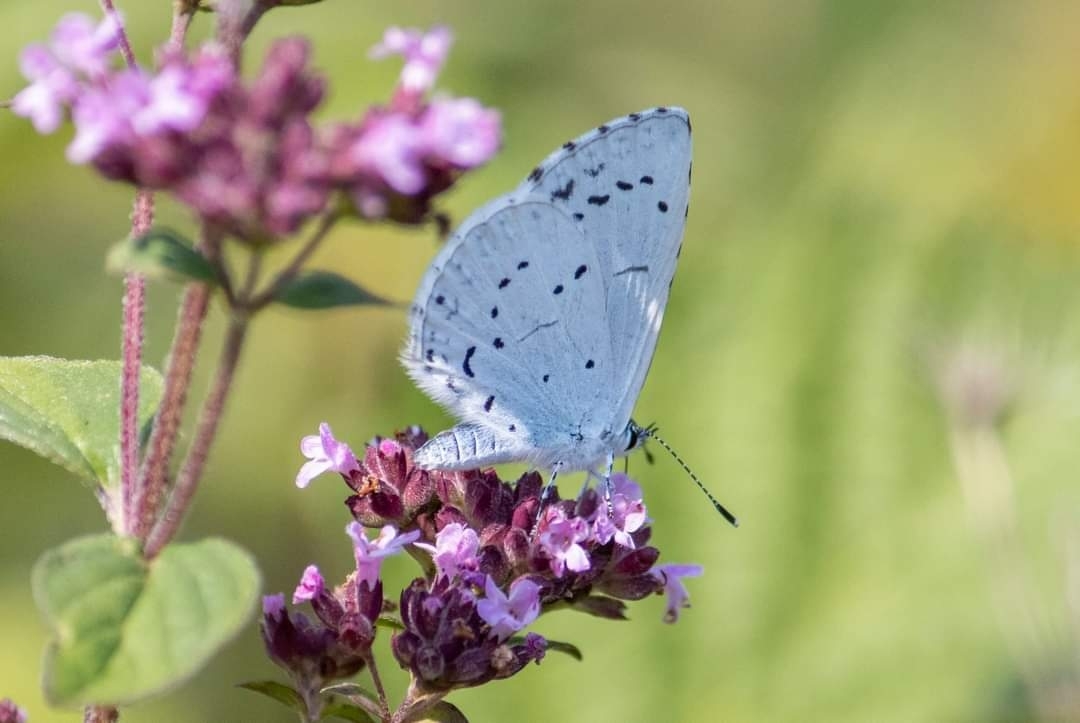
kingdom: Animalia
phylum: Arthropoda
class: Insecta
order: Lepidoptera
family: Lycaenidae
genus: Celastrina
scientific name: Celastrina argiolus
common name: Holly blue
